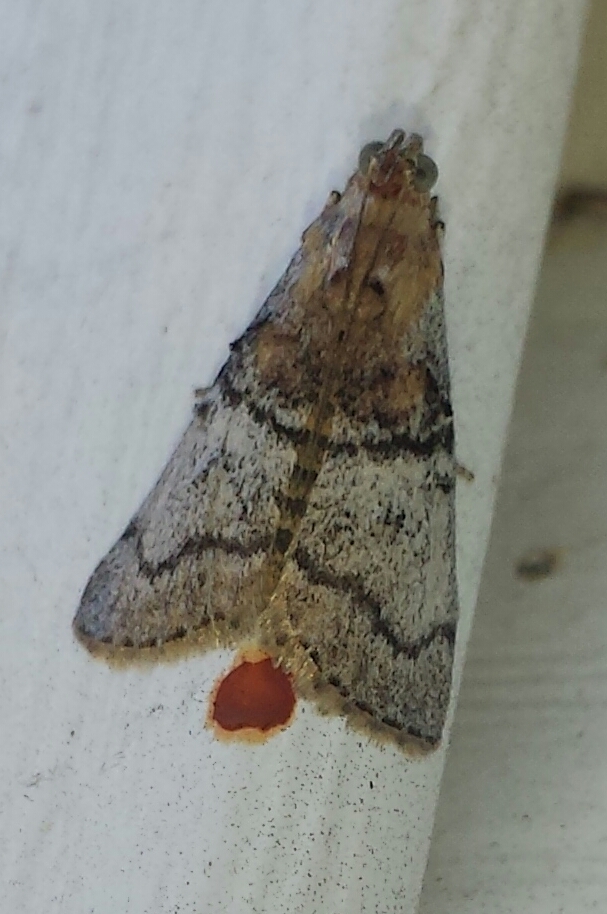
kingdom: Animalia
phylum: Arthropoda
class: Insecta
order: Lepidoptera
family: Pyralidae
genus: Pococera
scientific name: Pococera maritimalis
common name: Gray-banded pococera moth
